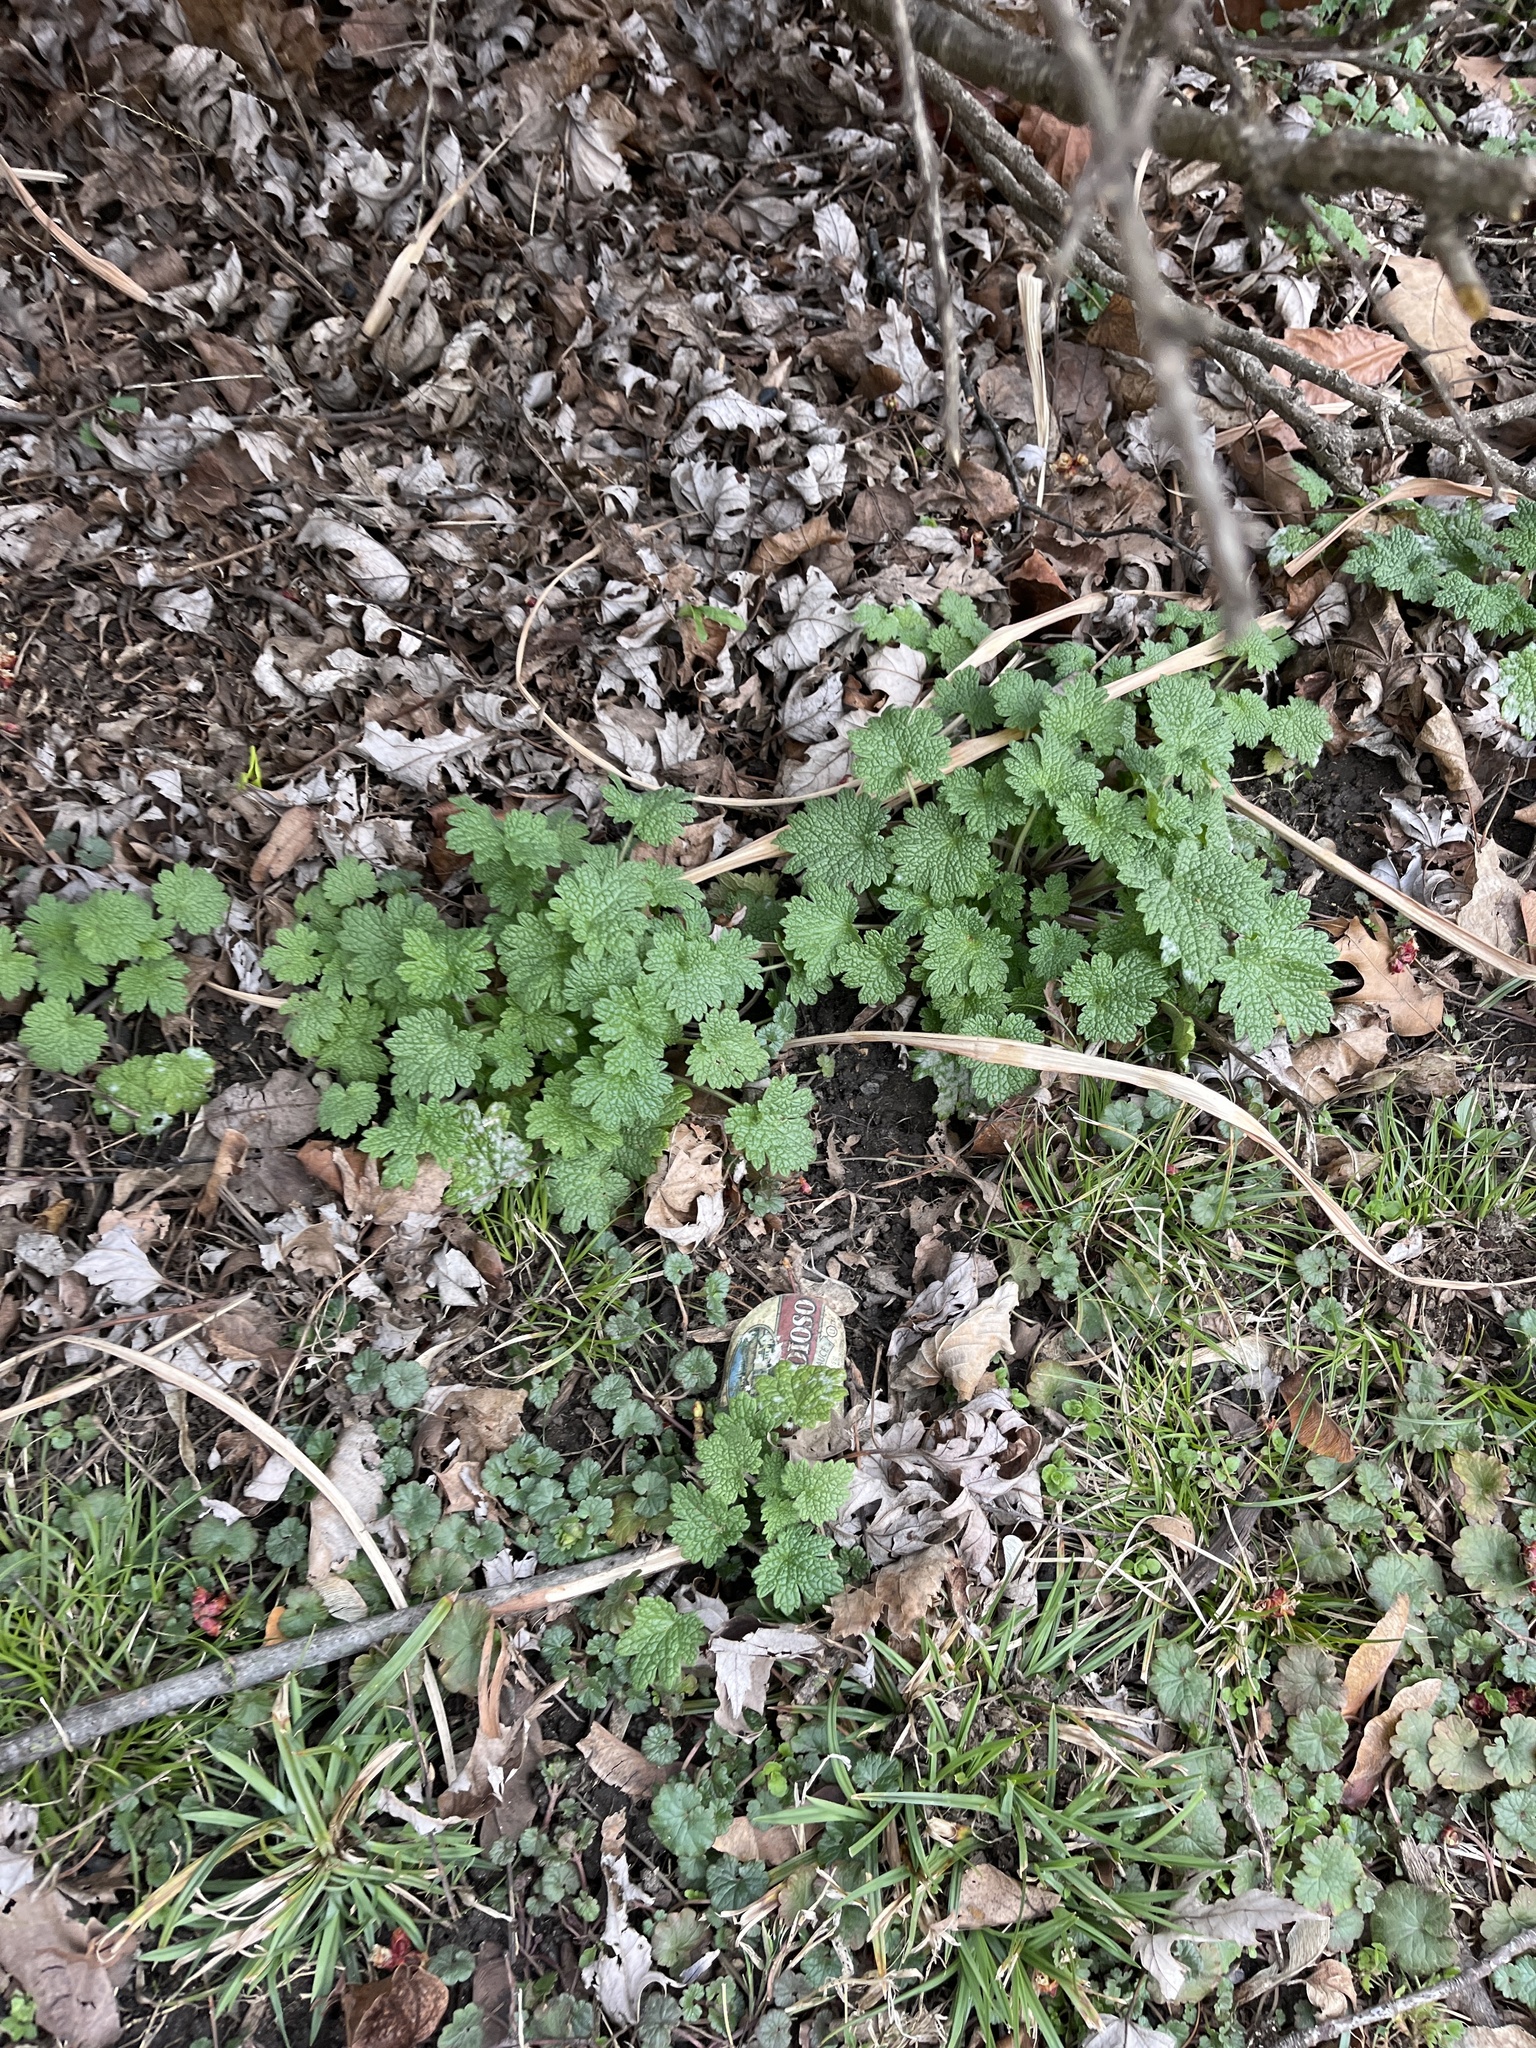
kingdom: Plantae
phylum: Tracheophyta
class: Magnoliopsida
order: Lamiales
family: Lamiaceae
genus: Leonurus
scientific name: Leonurus cardiaca
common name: Motherwort
